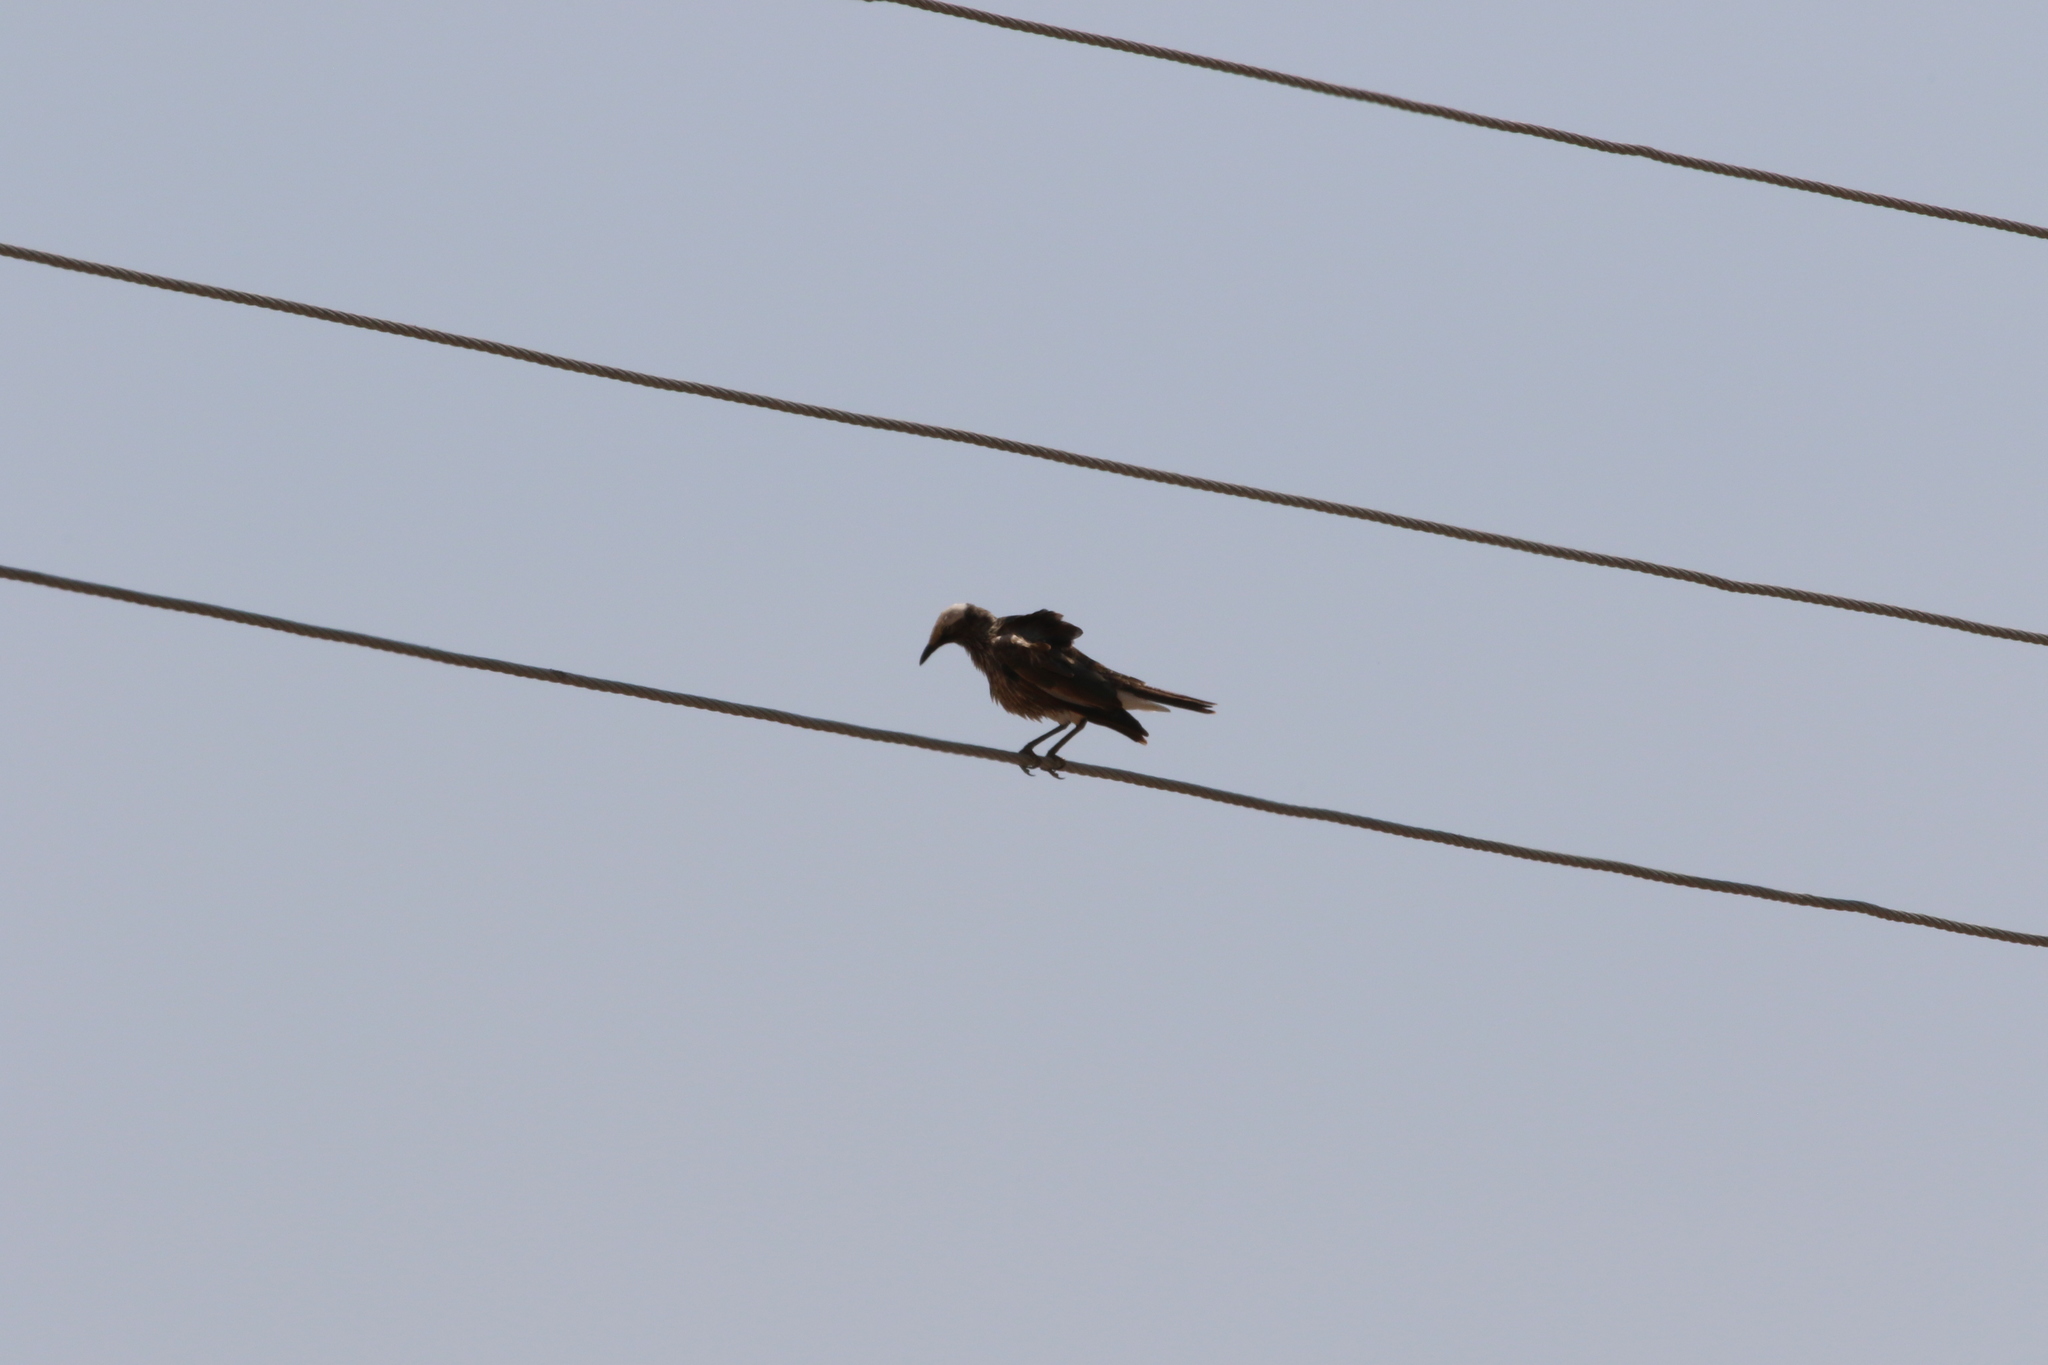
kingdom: Animalia
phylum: Chordata
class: Aves
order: Passeriformes
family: Sturnidae
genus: Lamprotornis
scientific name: Lamprotornis albicapillus
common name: White-crowned starling
